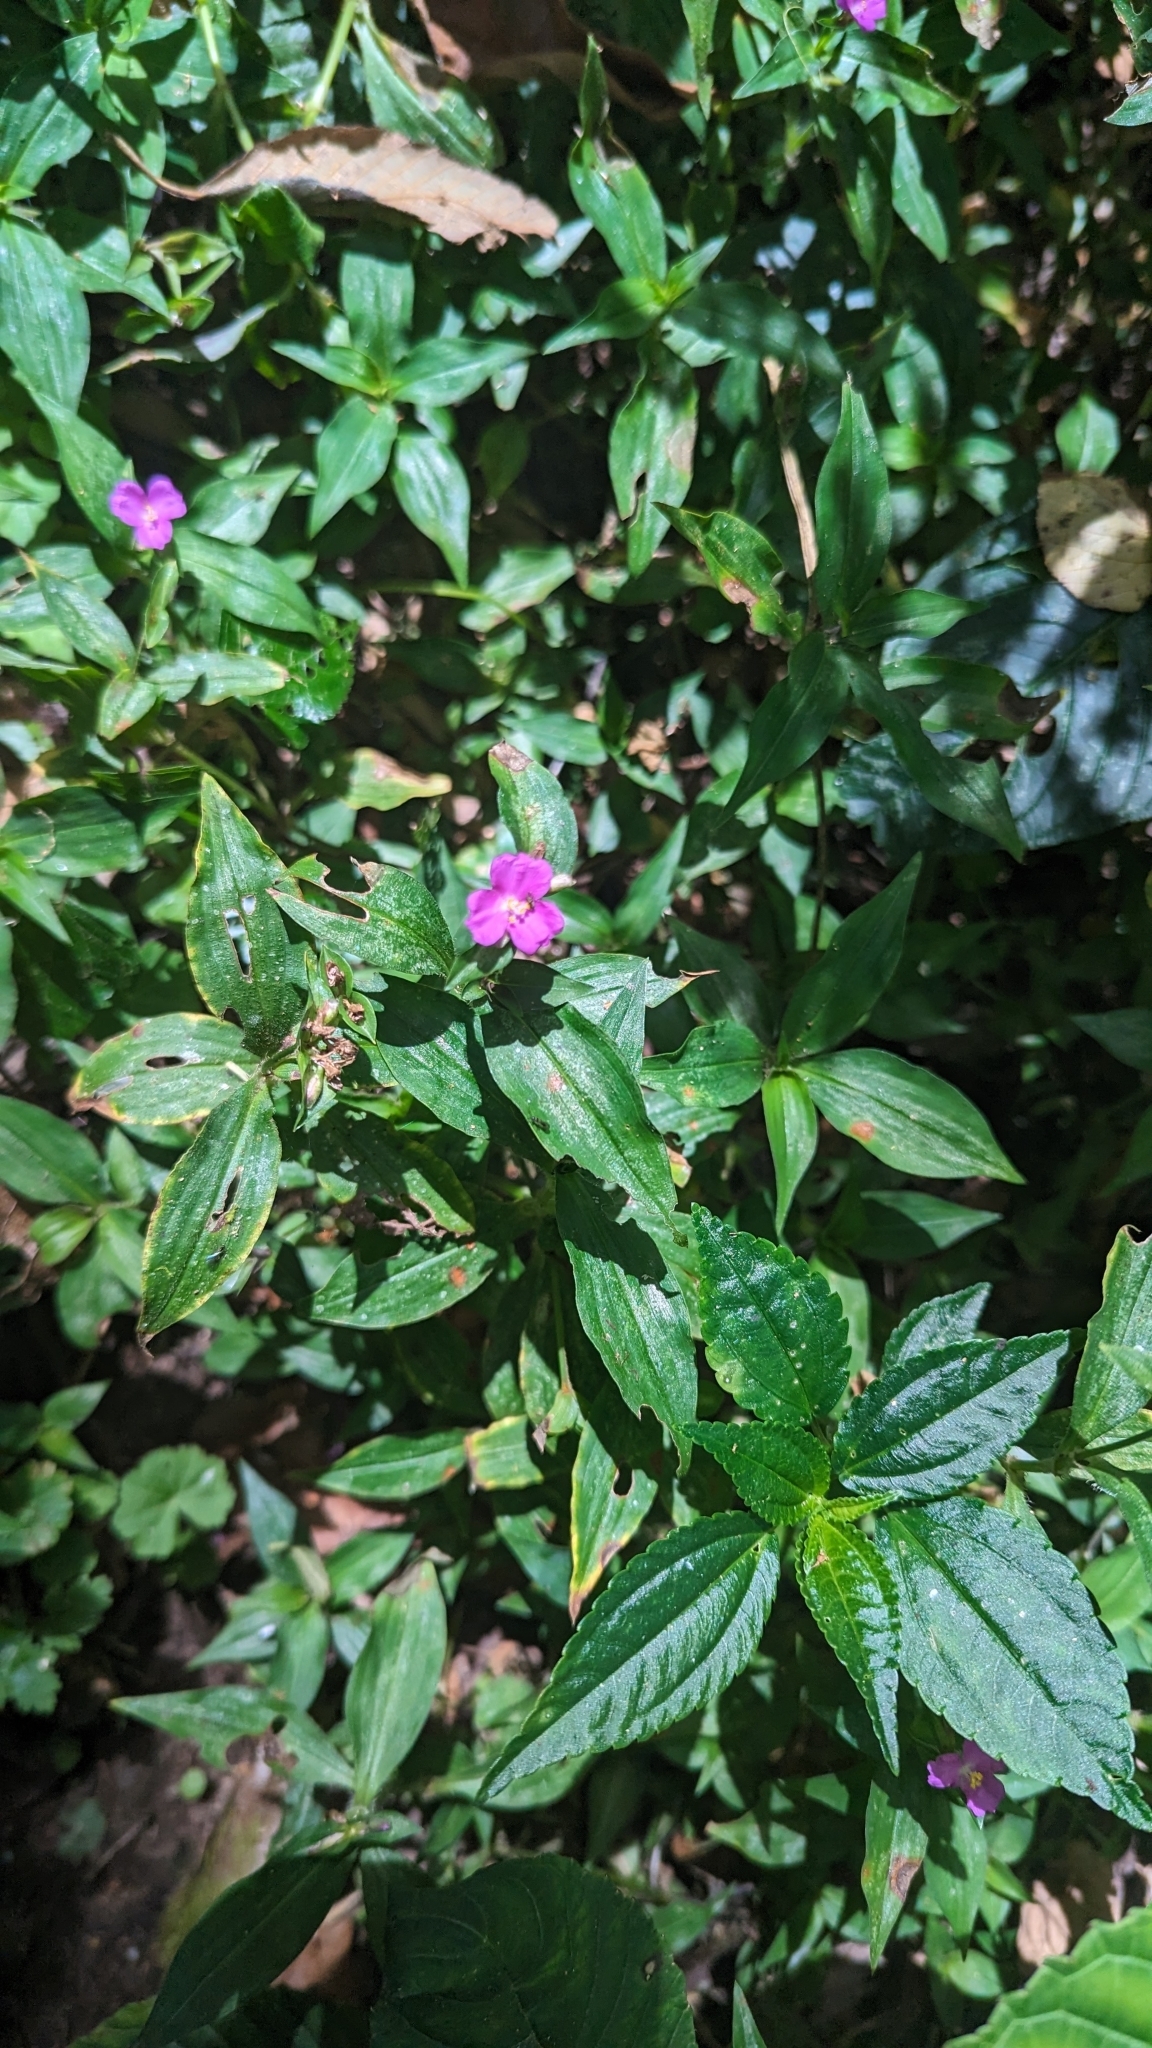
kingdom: Plantae
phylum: Tracheophyta
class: Liliopsida
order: Commelinales
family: Commelinaceae
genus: Tradescantia
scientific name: Tradescantia poelliae
